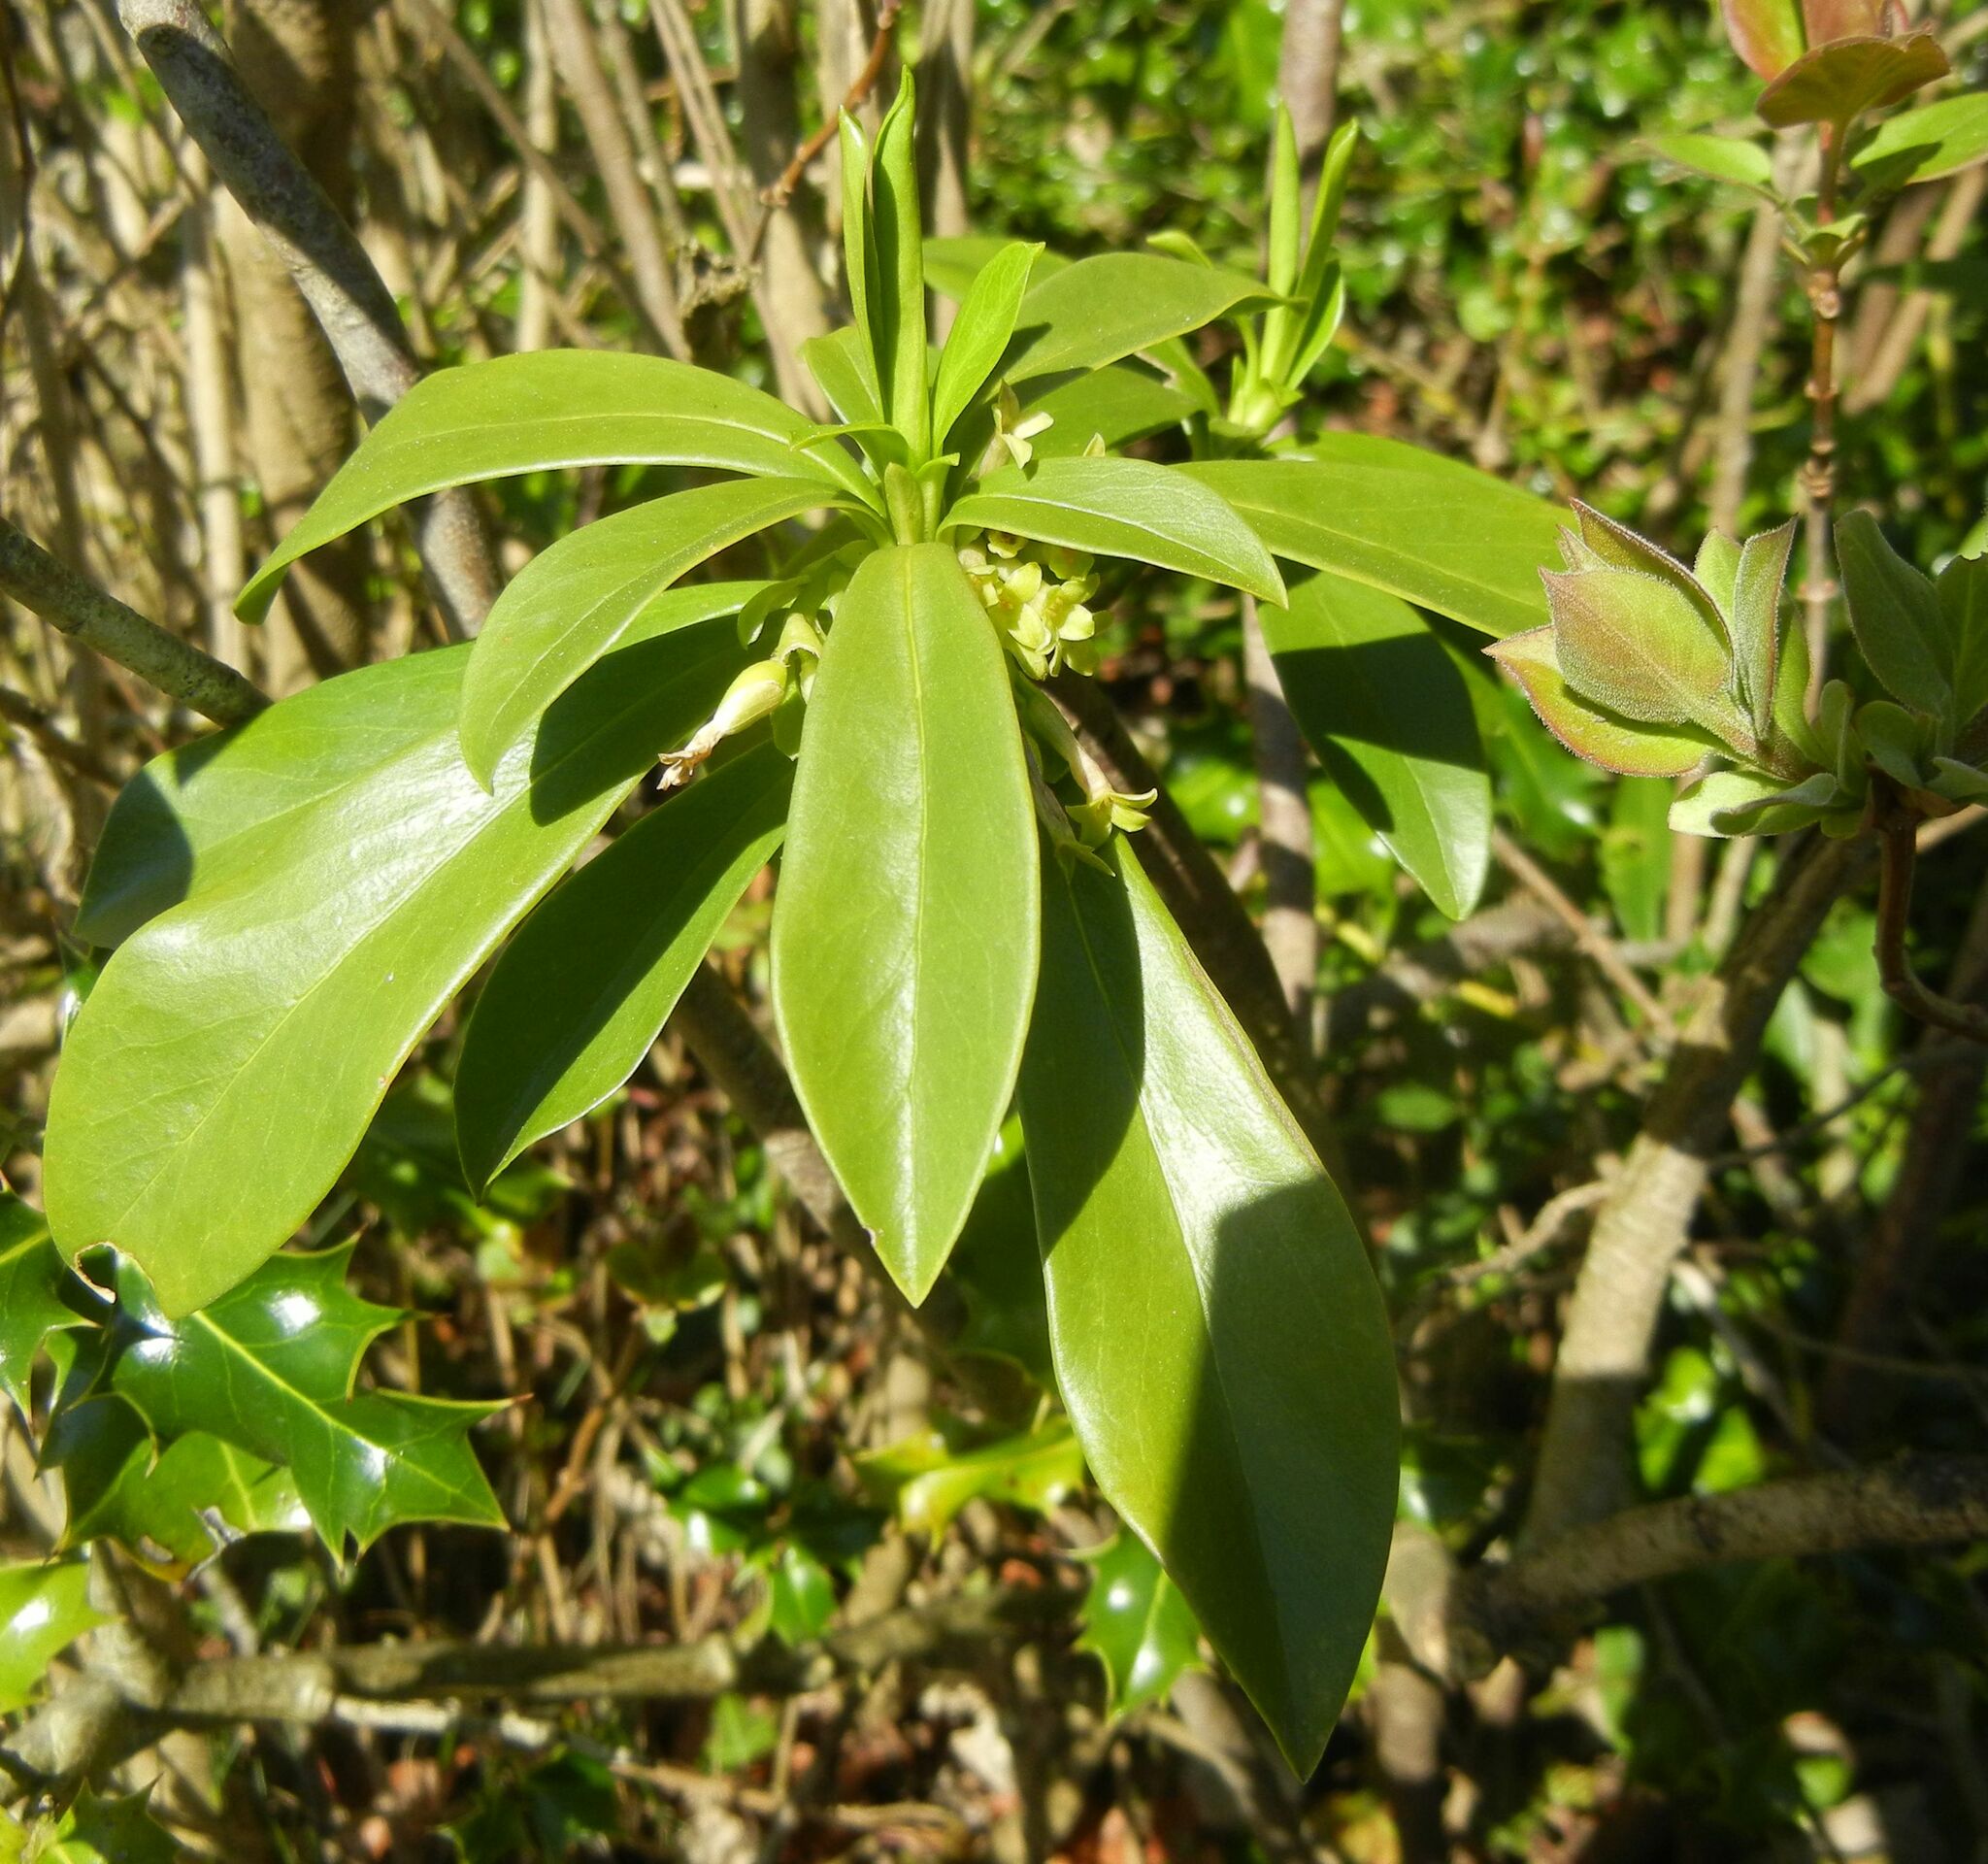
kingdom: Plantae
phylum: Tracheophyta
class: Magnoliopsida
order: Malvales
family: Thymelaeaceae
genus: Daphne
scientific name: Daphne laureola
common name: Spurge-laurel
